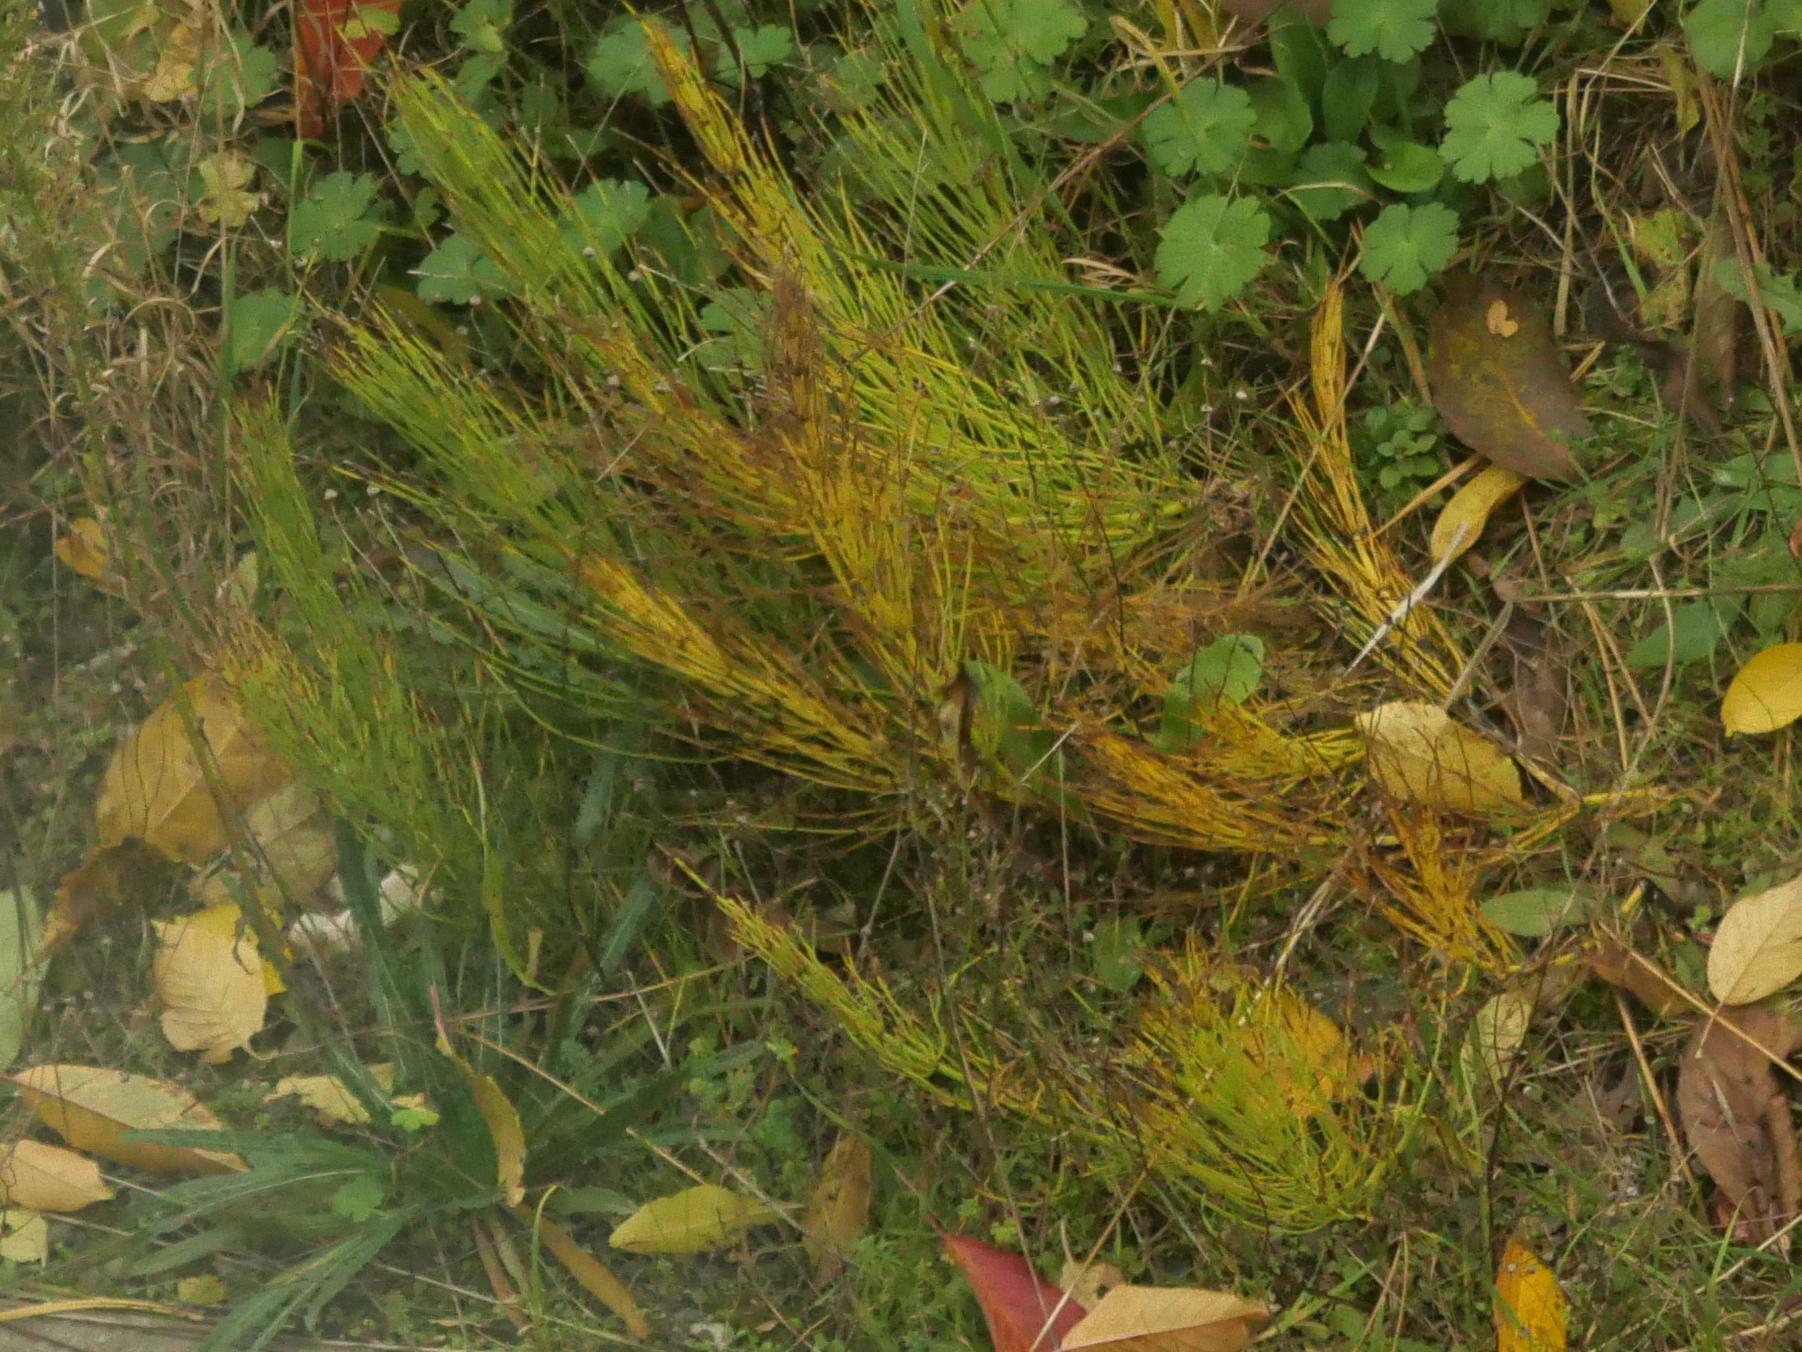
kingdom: Plantae
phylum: Tracheophyta
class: Polypodiopsida
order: Equisetales
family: Equisetaceae
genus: Equisetum
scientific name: Equisetum arvense
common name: Field horsetail
